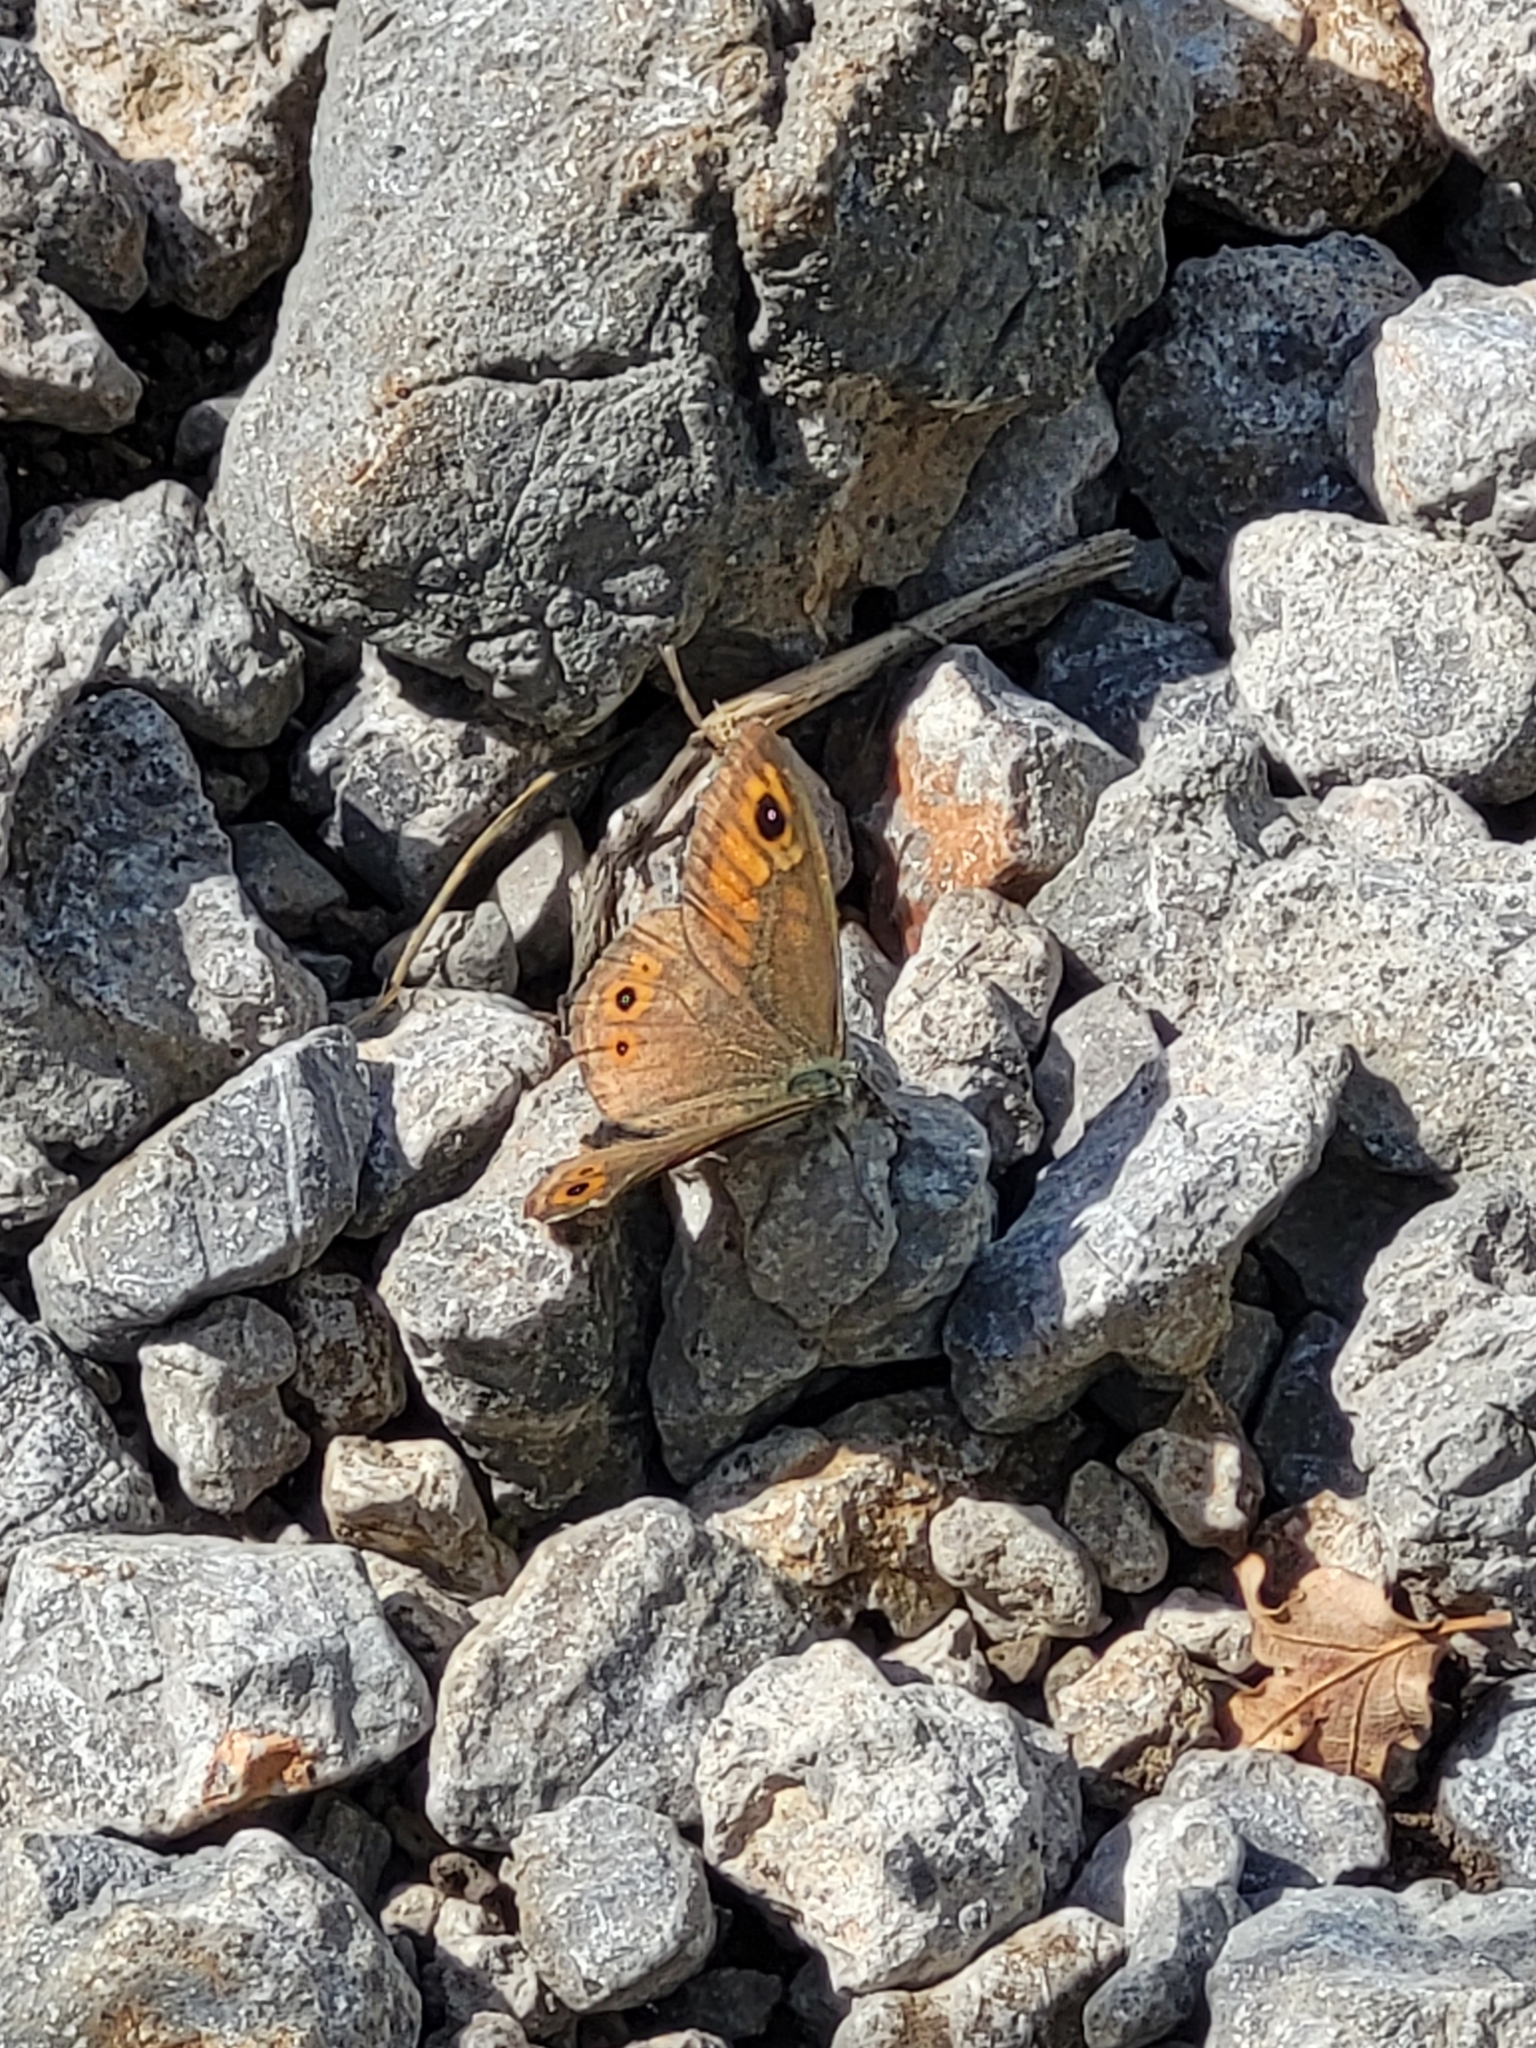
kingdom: Animalia
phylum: Arthropoda
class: Insecta
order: Lepidoptera
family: Nymphalidae
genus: Pararge
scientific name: Pararge Lasiommata maera
